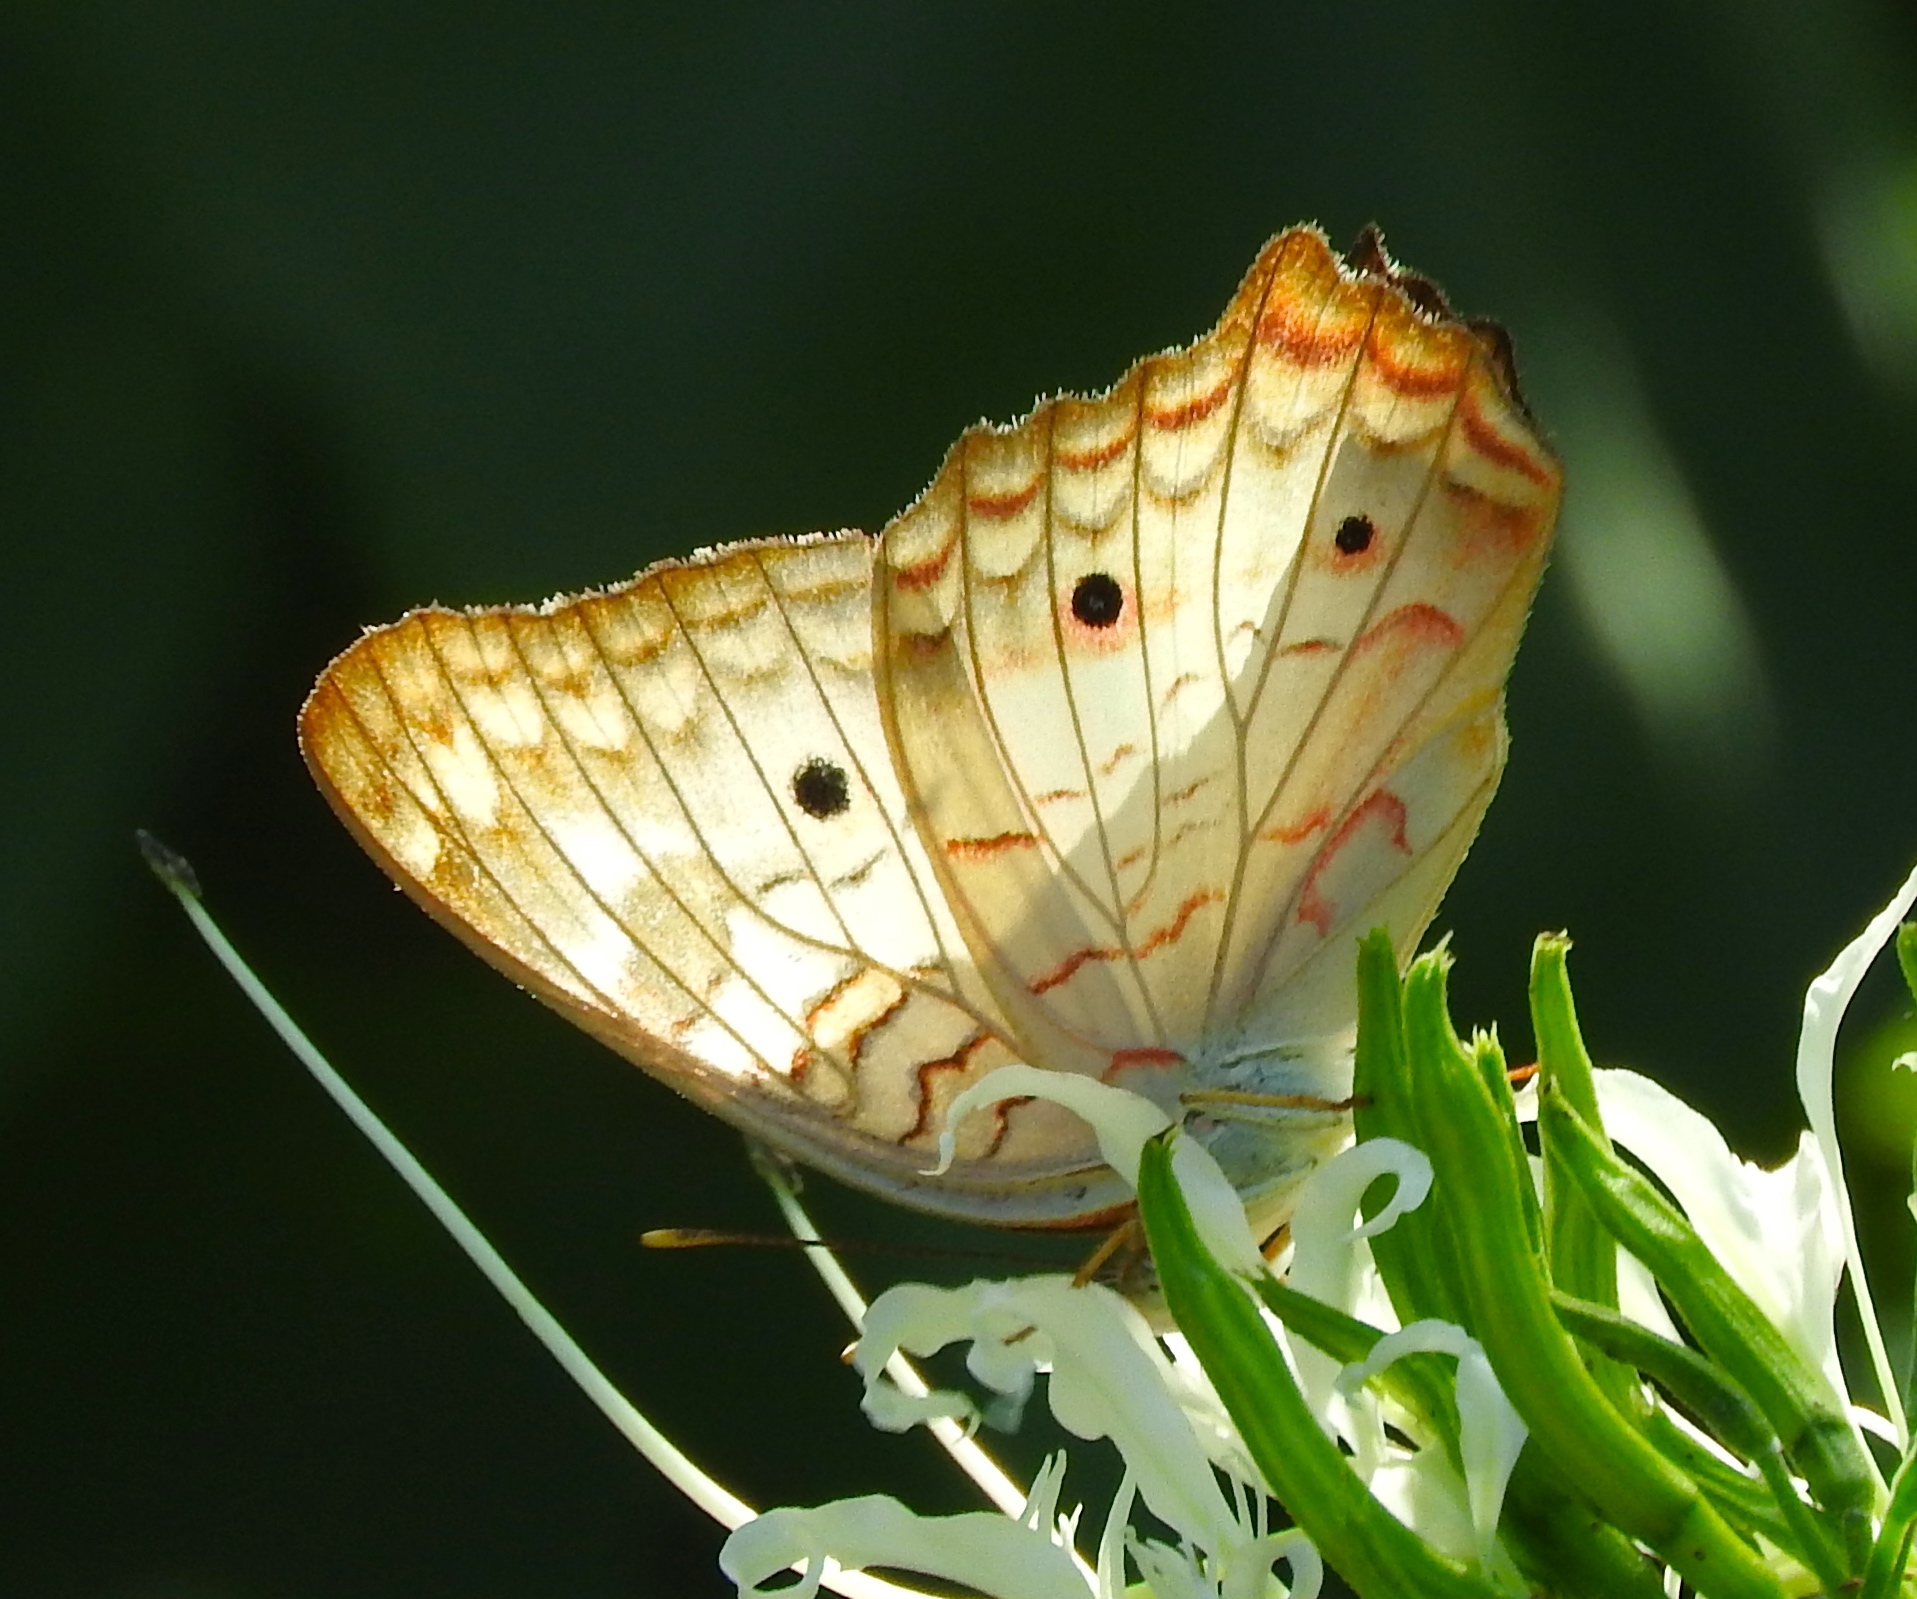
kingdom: Animalia
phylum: Arthropoda
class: Insecta
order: Lepidoptera
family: Nymphalidae
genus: Anartia
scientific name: Anartia jatrophae
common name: White peacock
